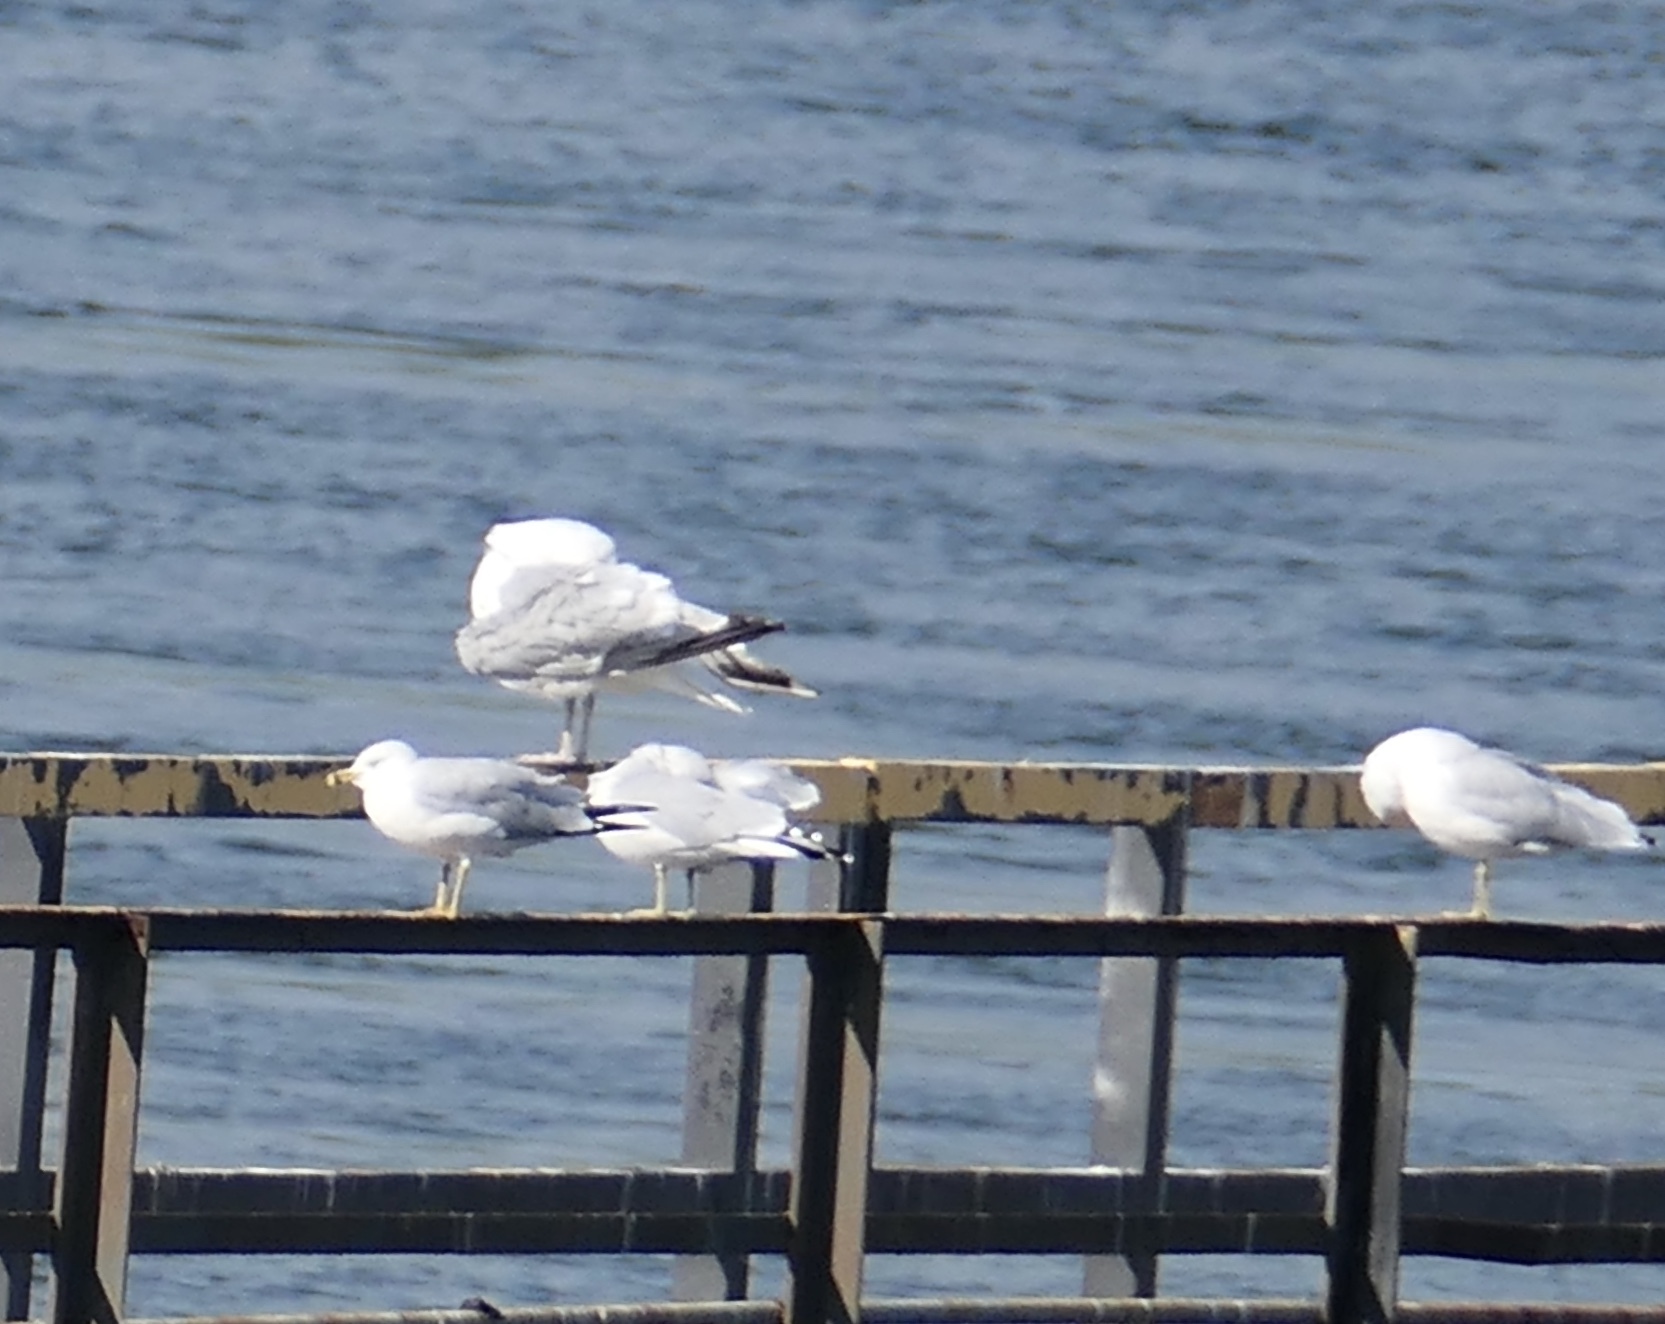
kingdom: Animalia
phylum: Chordata
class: Aves
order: Charadriiformes
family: Laridae
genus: Larus
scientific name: Larus delawarensis
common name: Ring-billed gull
